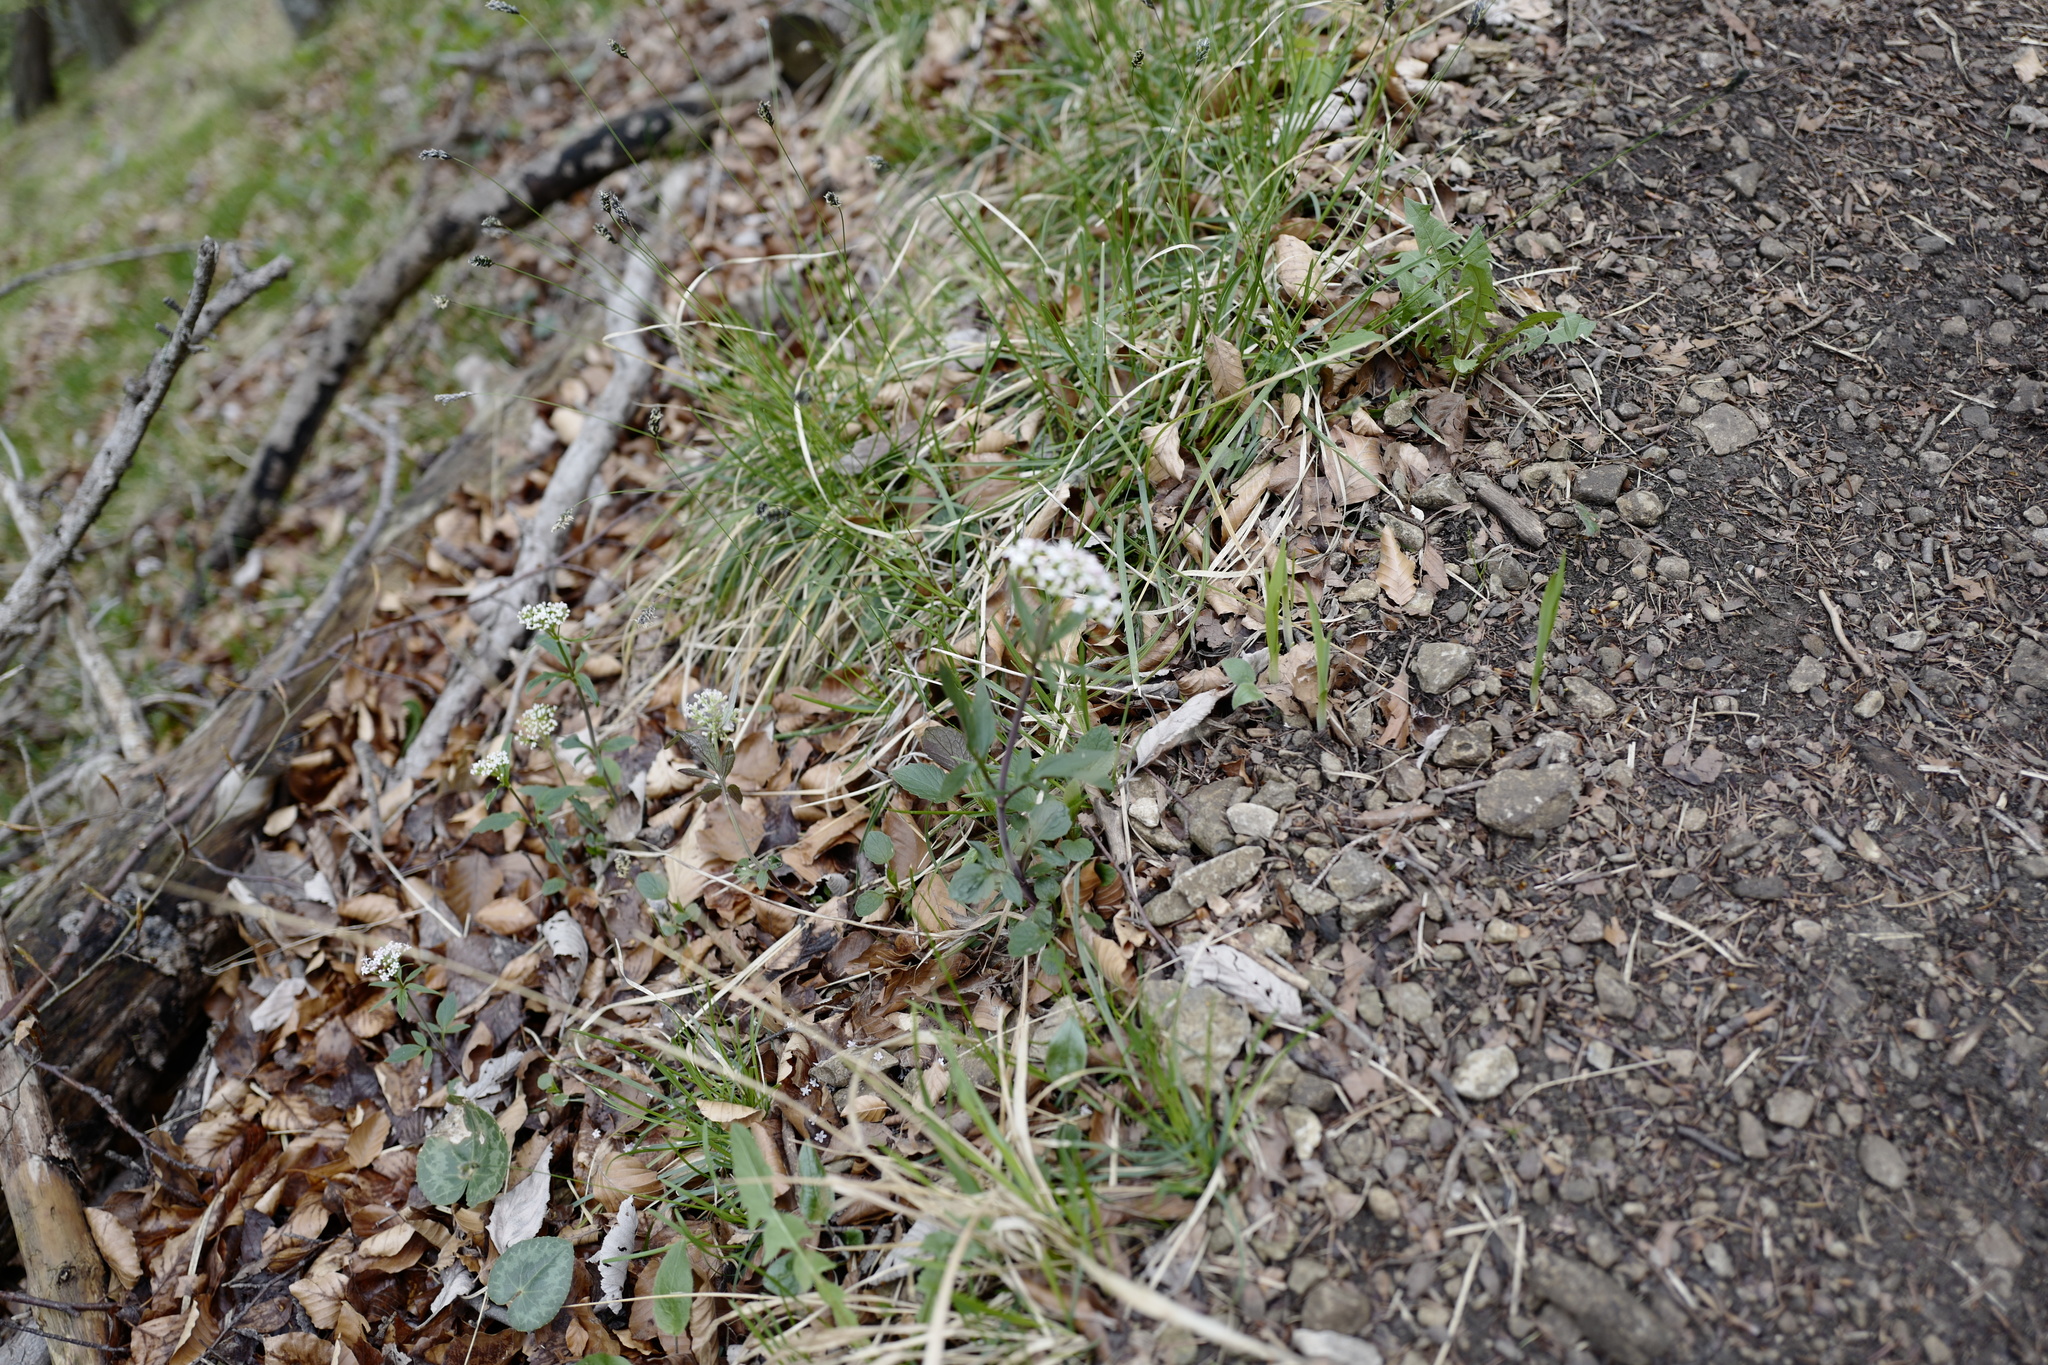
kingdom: Plantae
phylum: Tracheophyta
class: Magnoliopsida
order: Dipsacales
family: Caprifoliaceae
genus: Valeriana
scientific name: Valeriana tripteris
